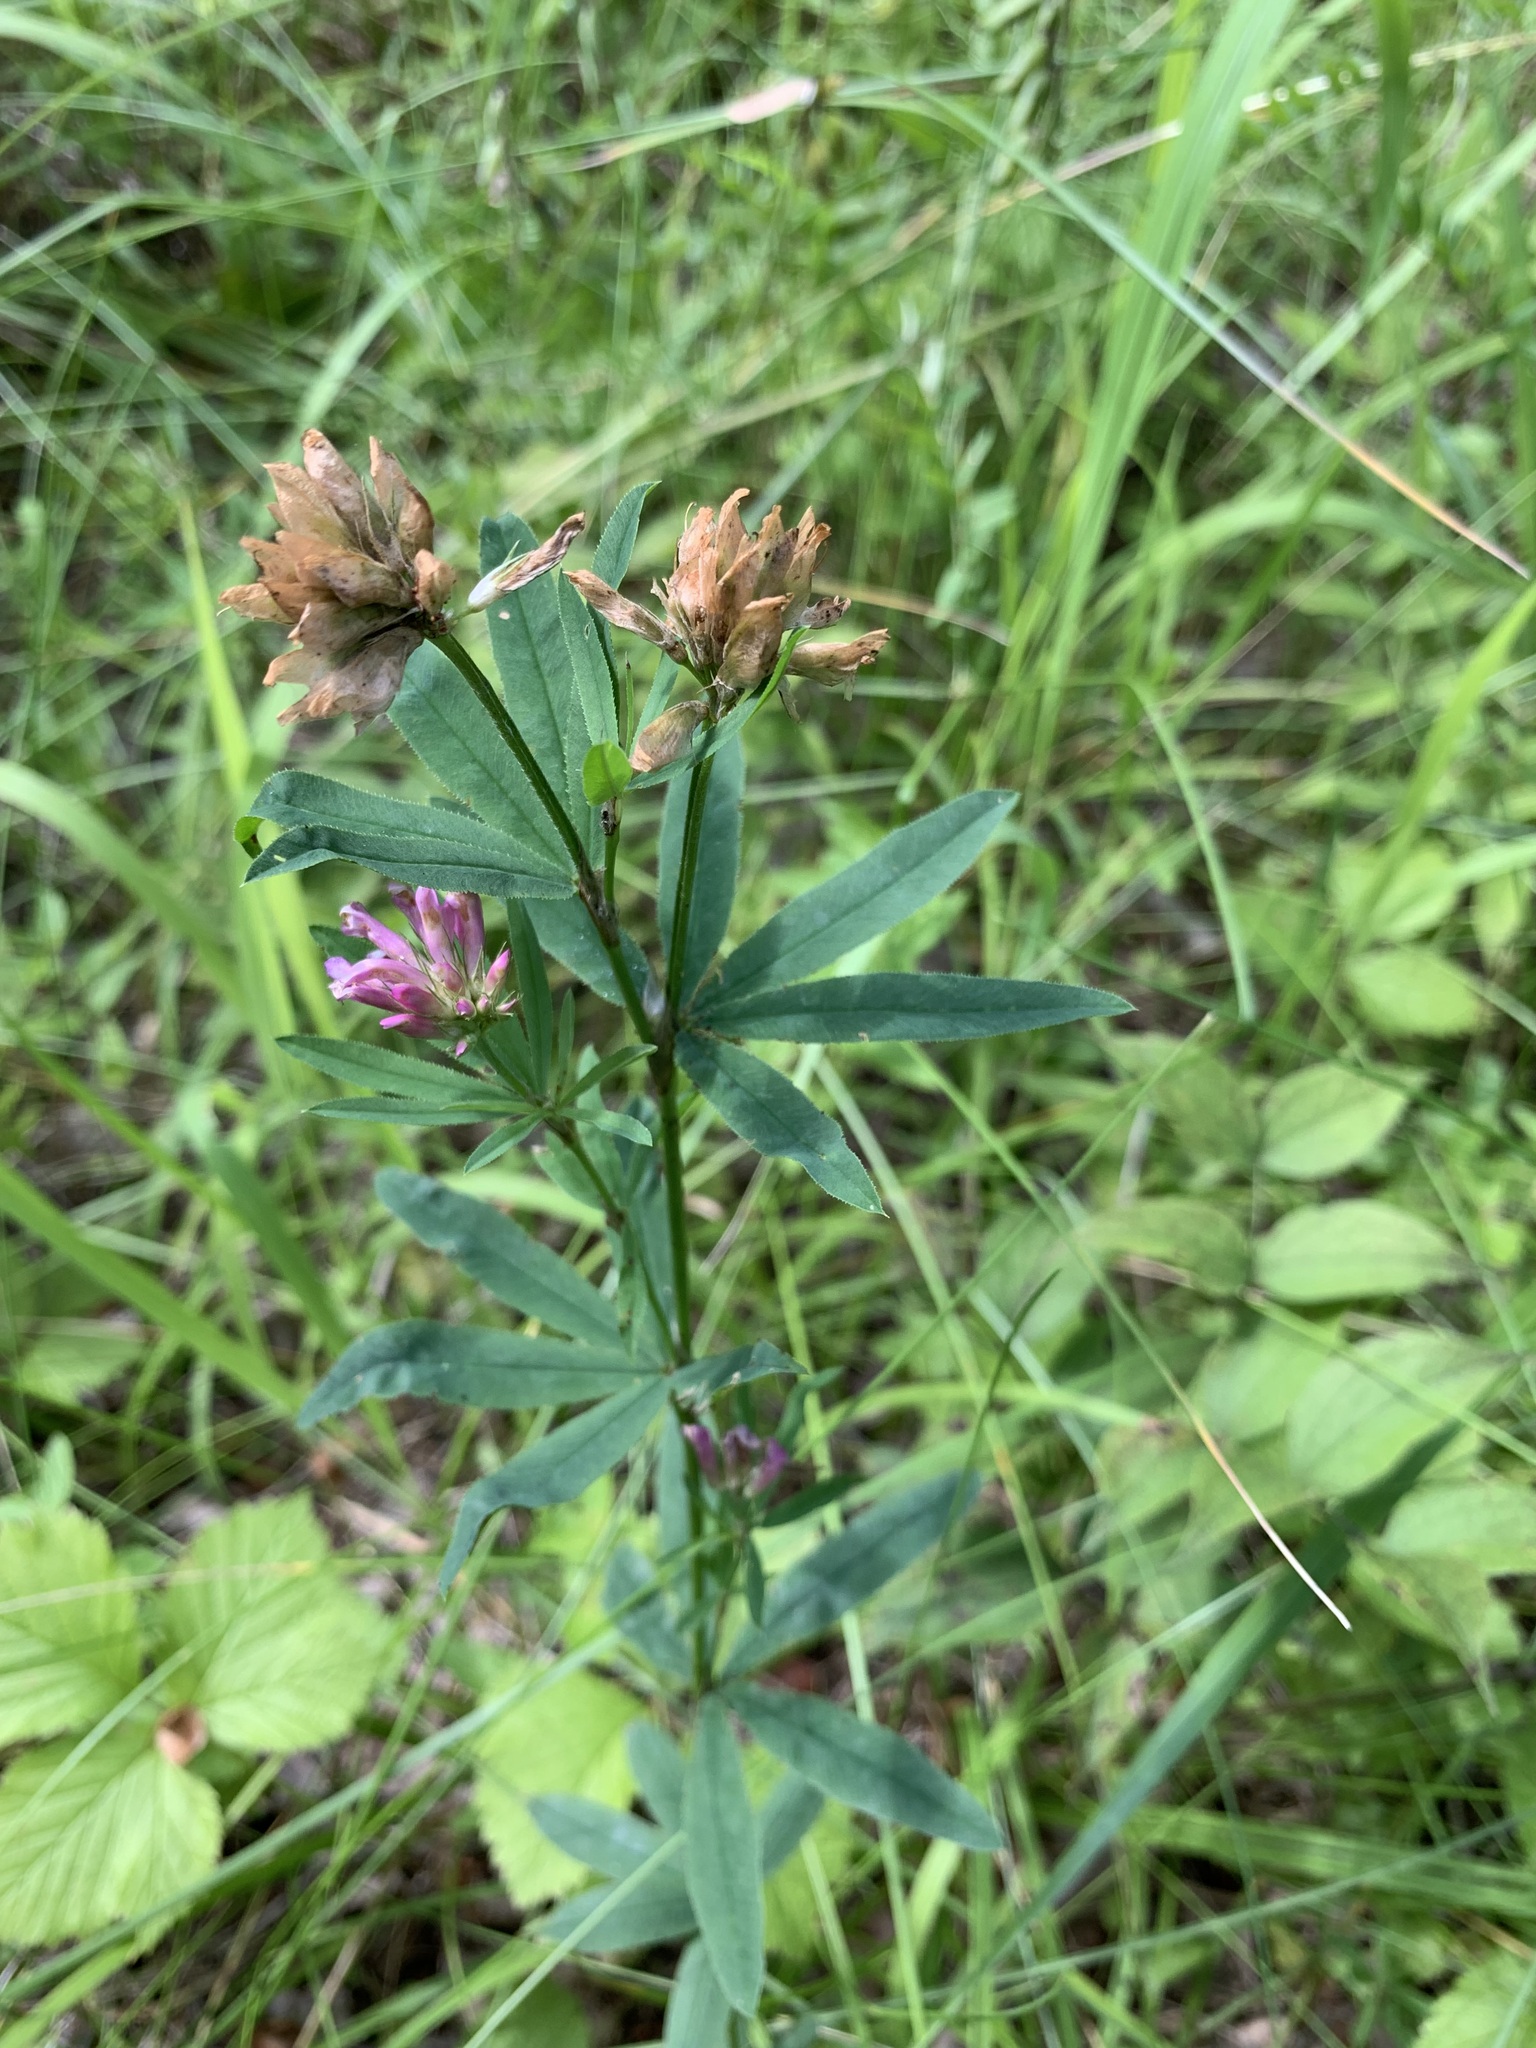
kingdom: Plantae
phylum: Tracheophyta
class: Magnoliopsida
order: Fabales
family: Fabaceae
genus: Trifolium
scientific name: Trifolium lupinaster
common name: Lupine clover
